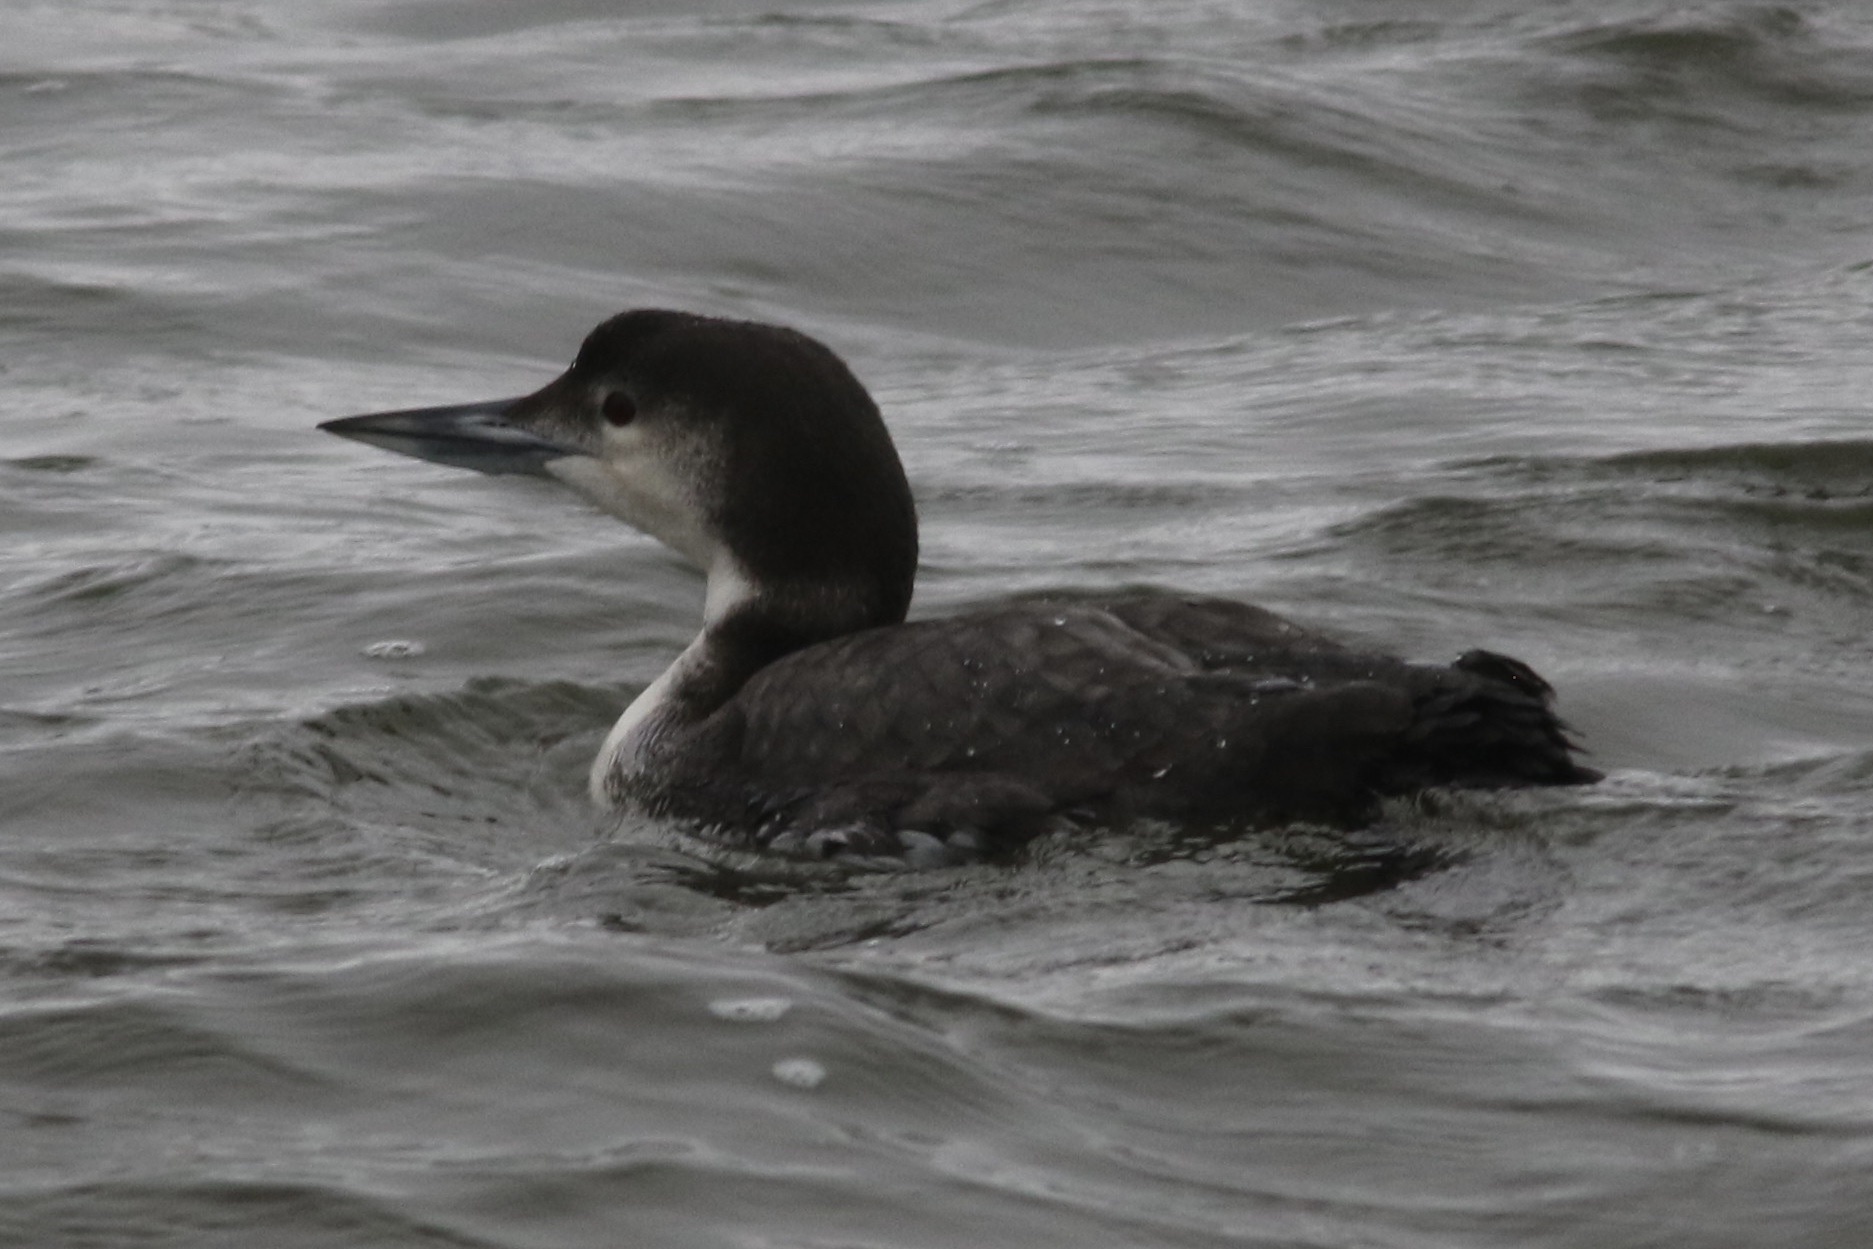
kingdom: Animalia
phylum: Chordata
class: Aves
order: Gaviiformes
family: Gaviidae
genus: Gavia
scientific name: Gavia immer
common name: Common loon
